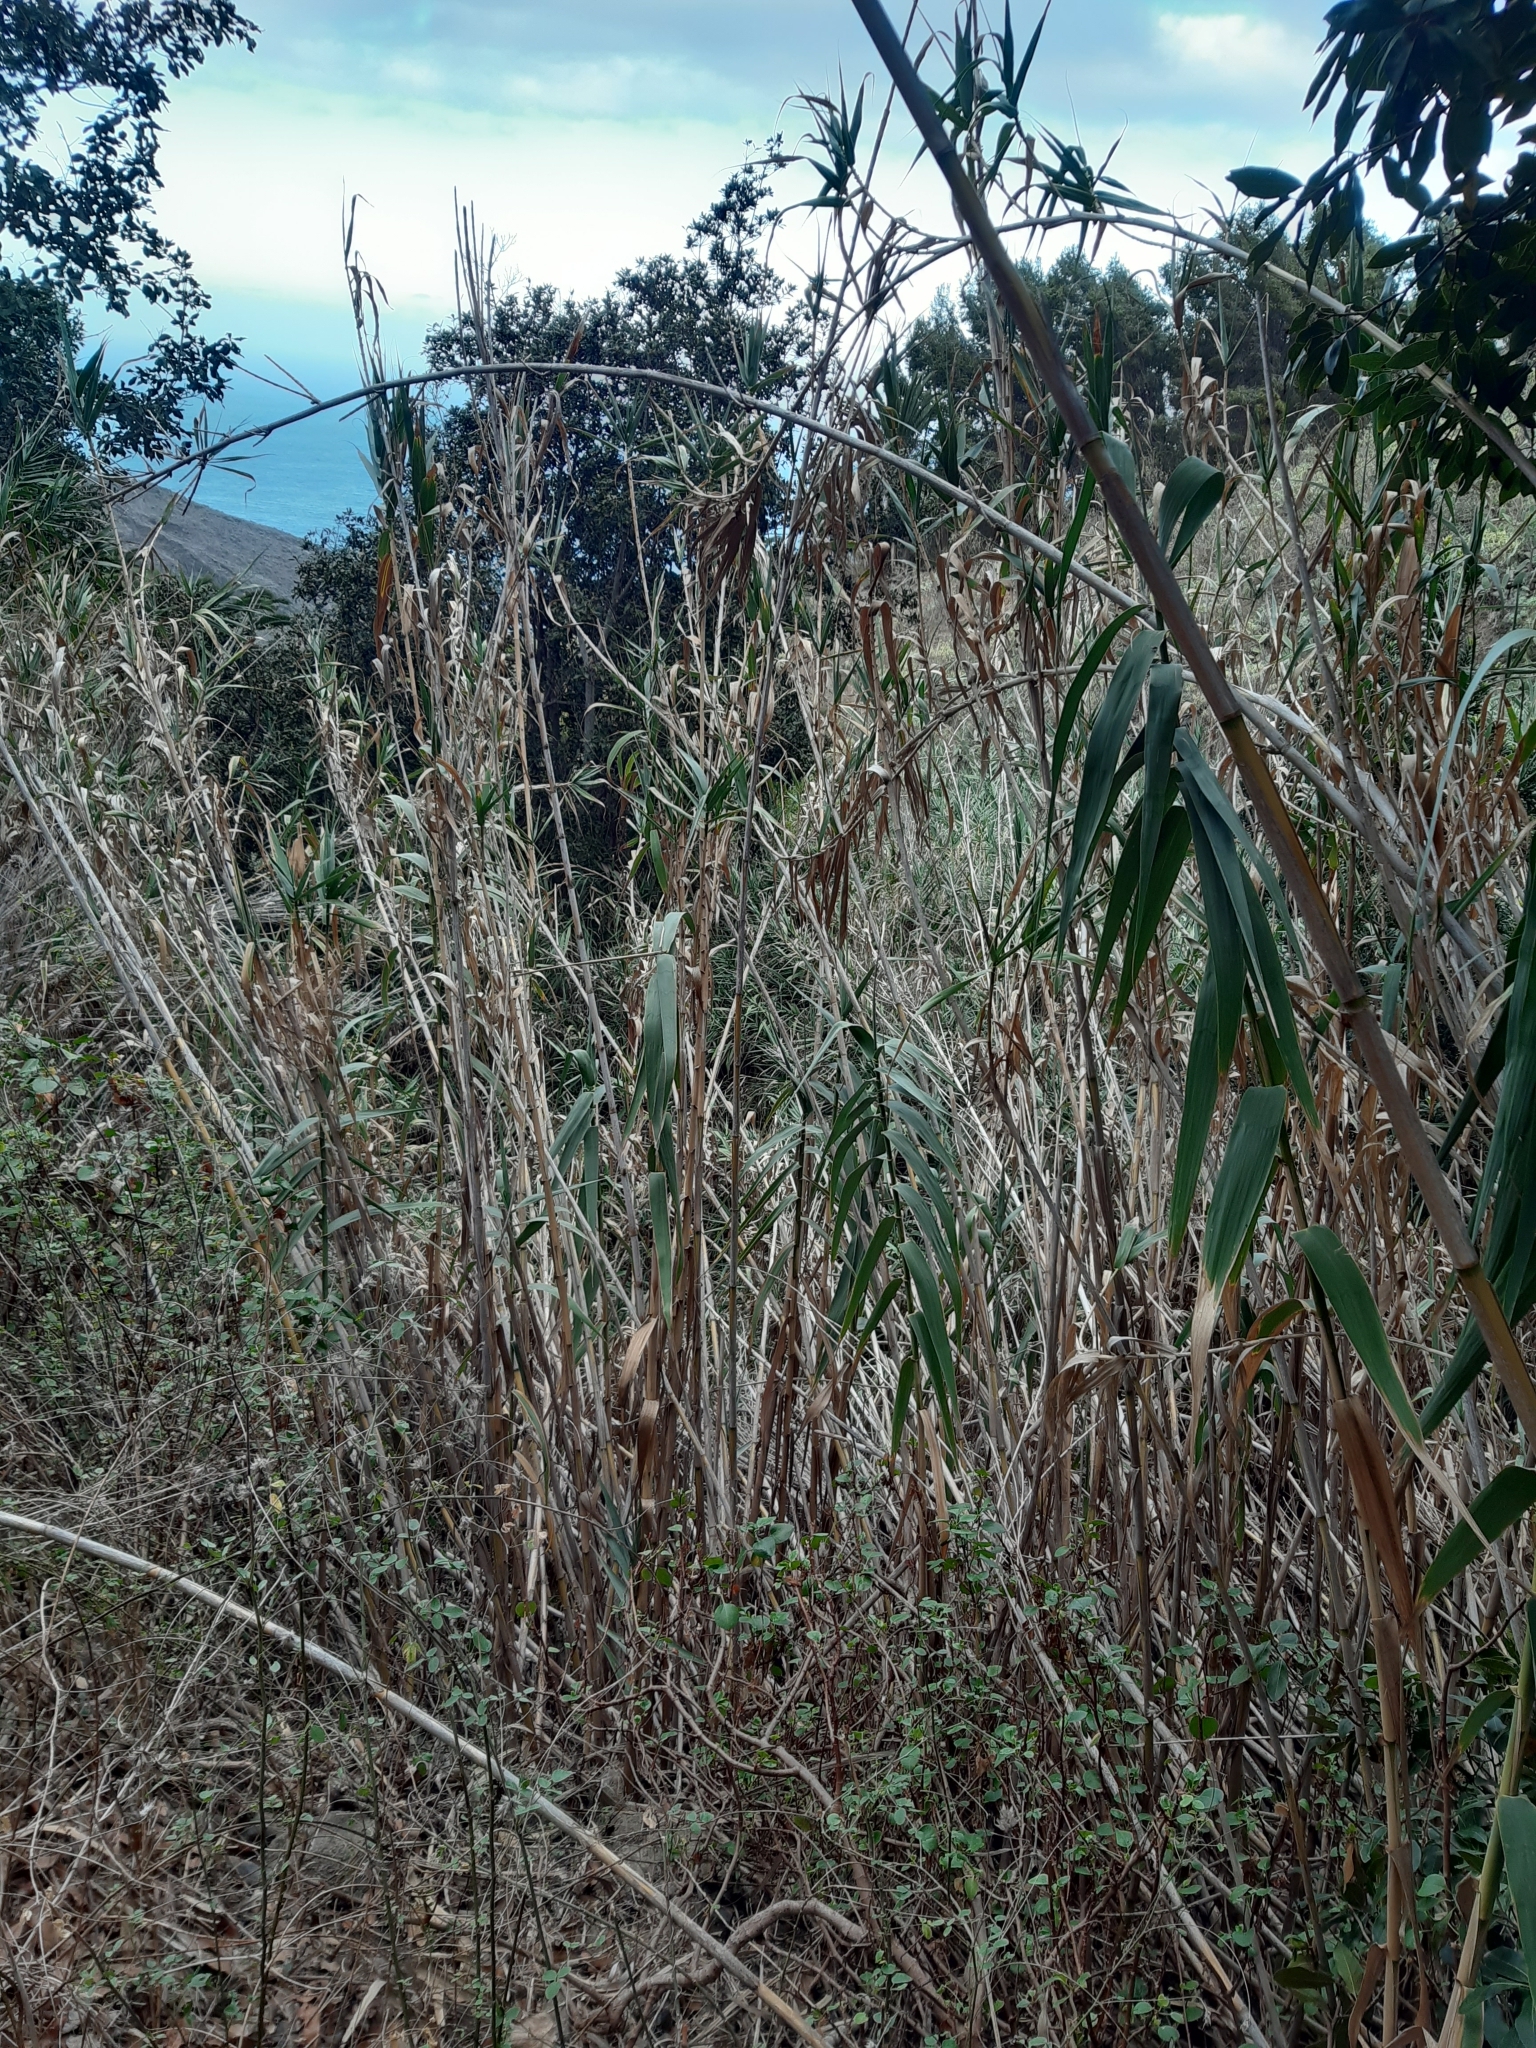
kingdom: Plantae
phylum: Tracheophyta
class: Liliopsida
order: Poales
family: Poaceae
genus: Arundo
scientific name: Arundo donax
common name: Giant reed
